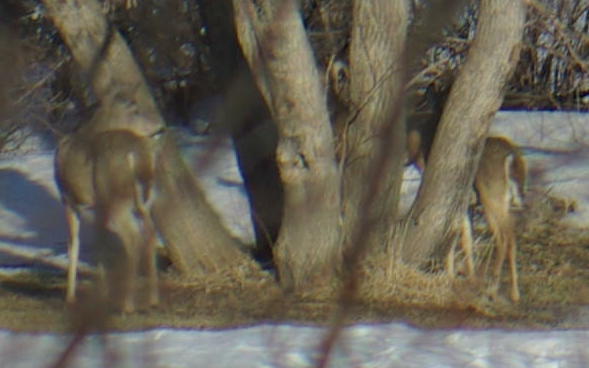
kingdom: Animalia
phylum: Chordata
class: Mammalia
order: Artiodactyla
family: Cervidae
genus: Odocoileus
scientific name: Odocoileus virginianus
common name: White-tailed deer
